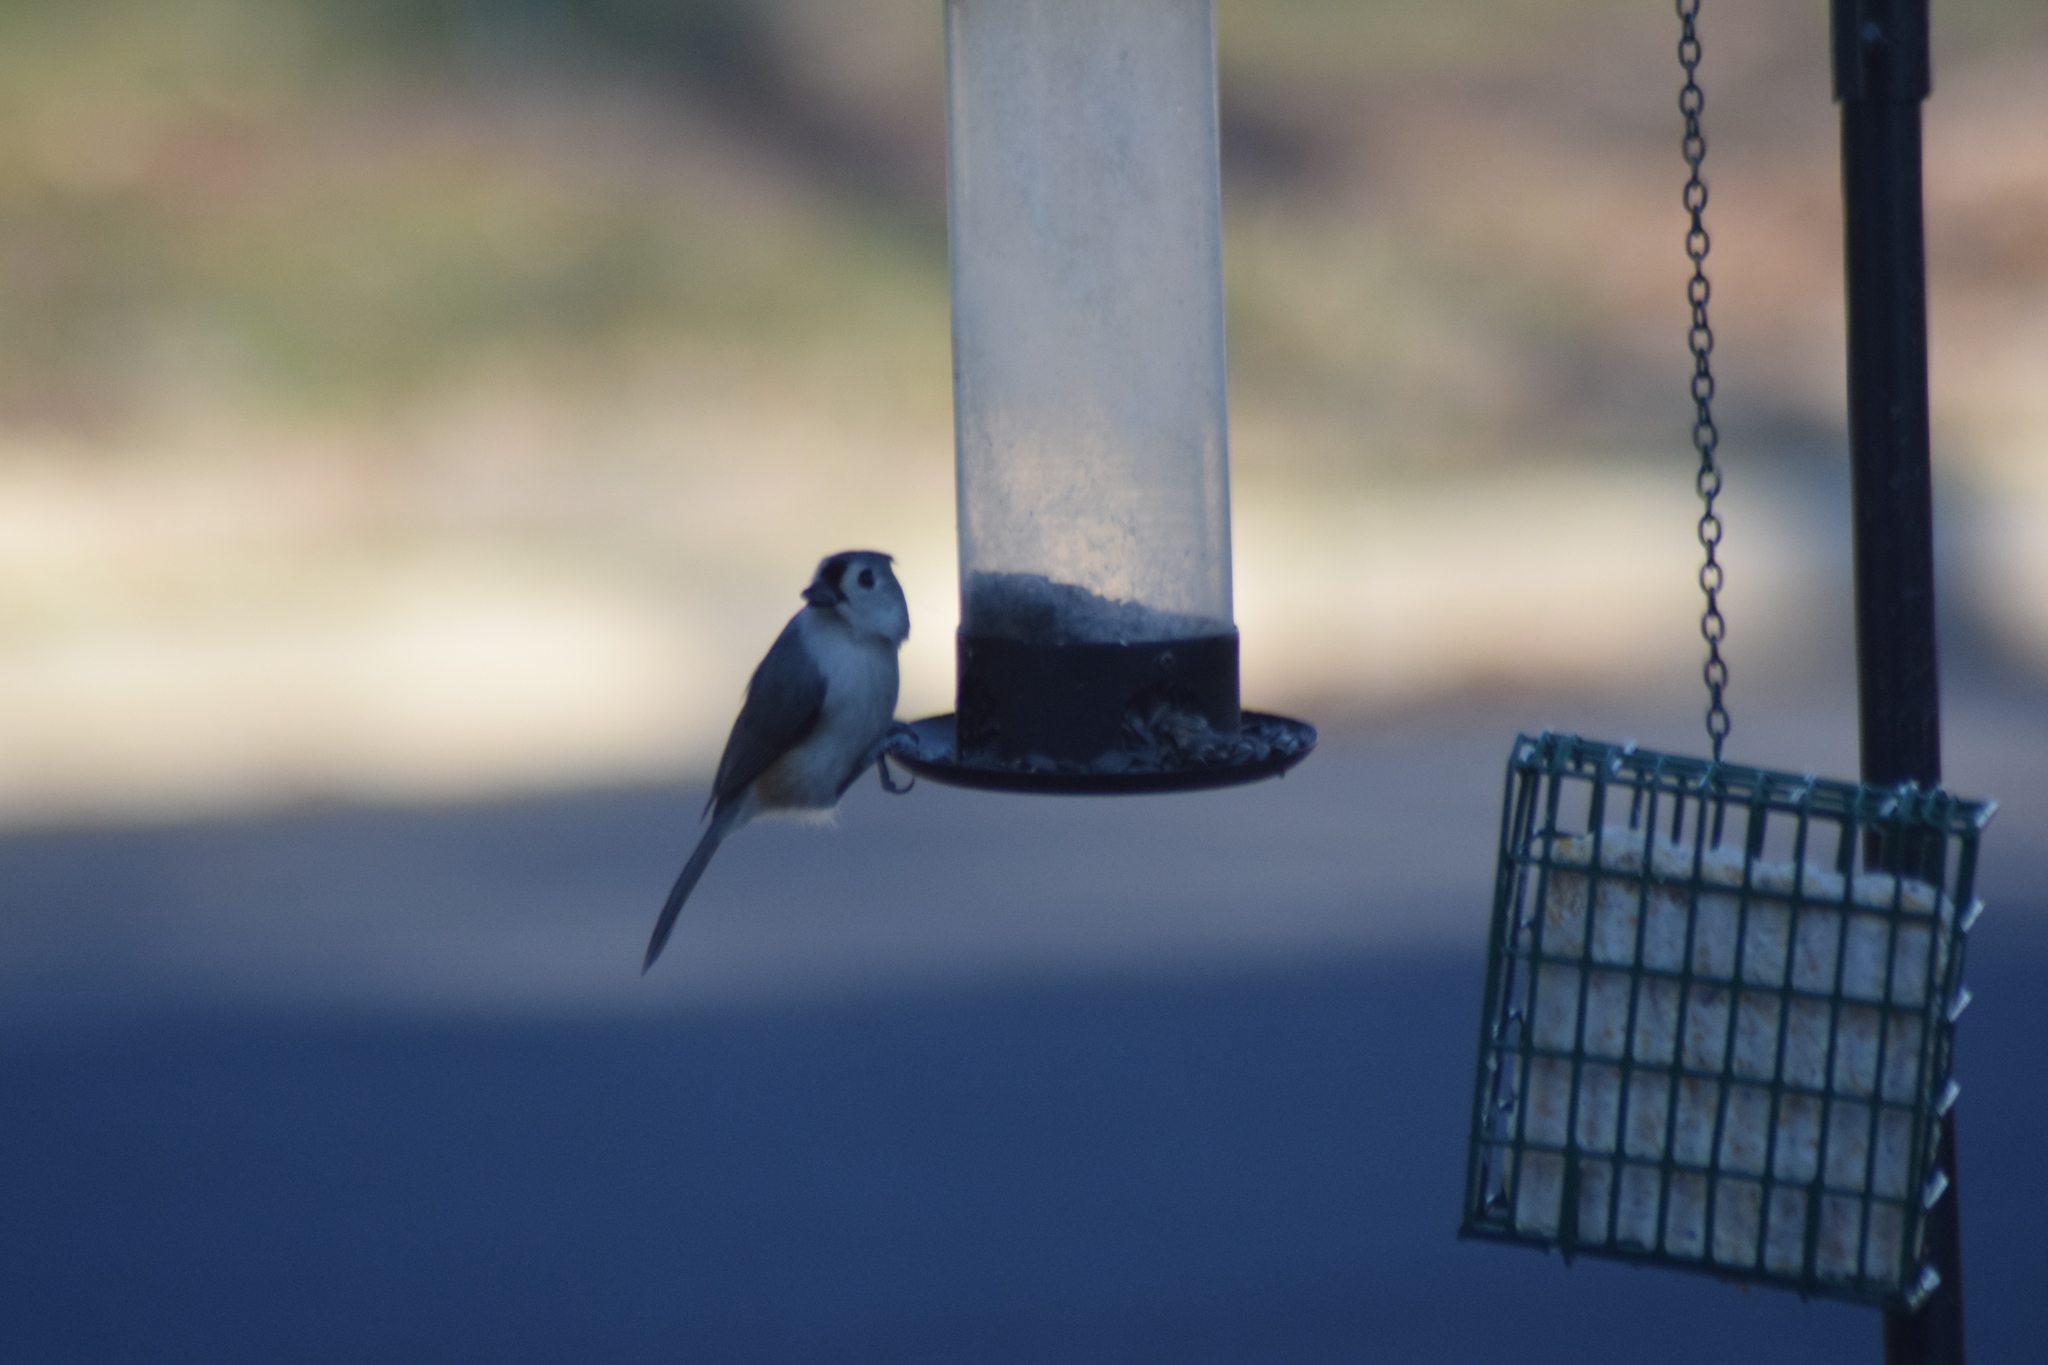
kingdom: Animalia
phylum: Chordata
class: Aves
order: Passeriformes
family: Paridae
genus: Baeolophus
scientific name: Baeolophus bicolor
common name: Tufted titmouse
